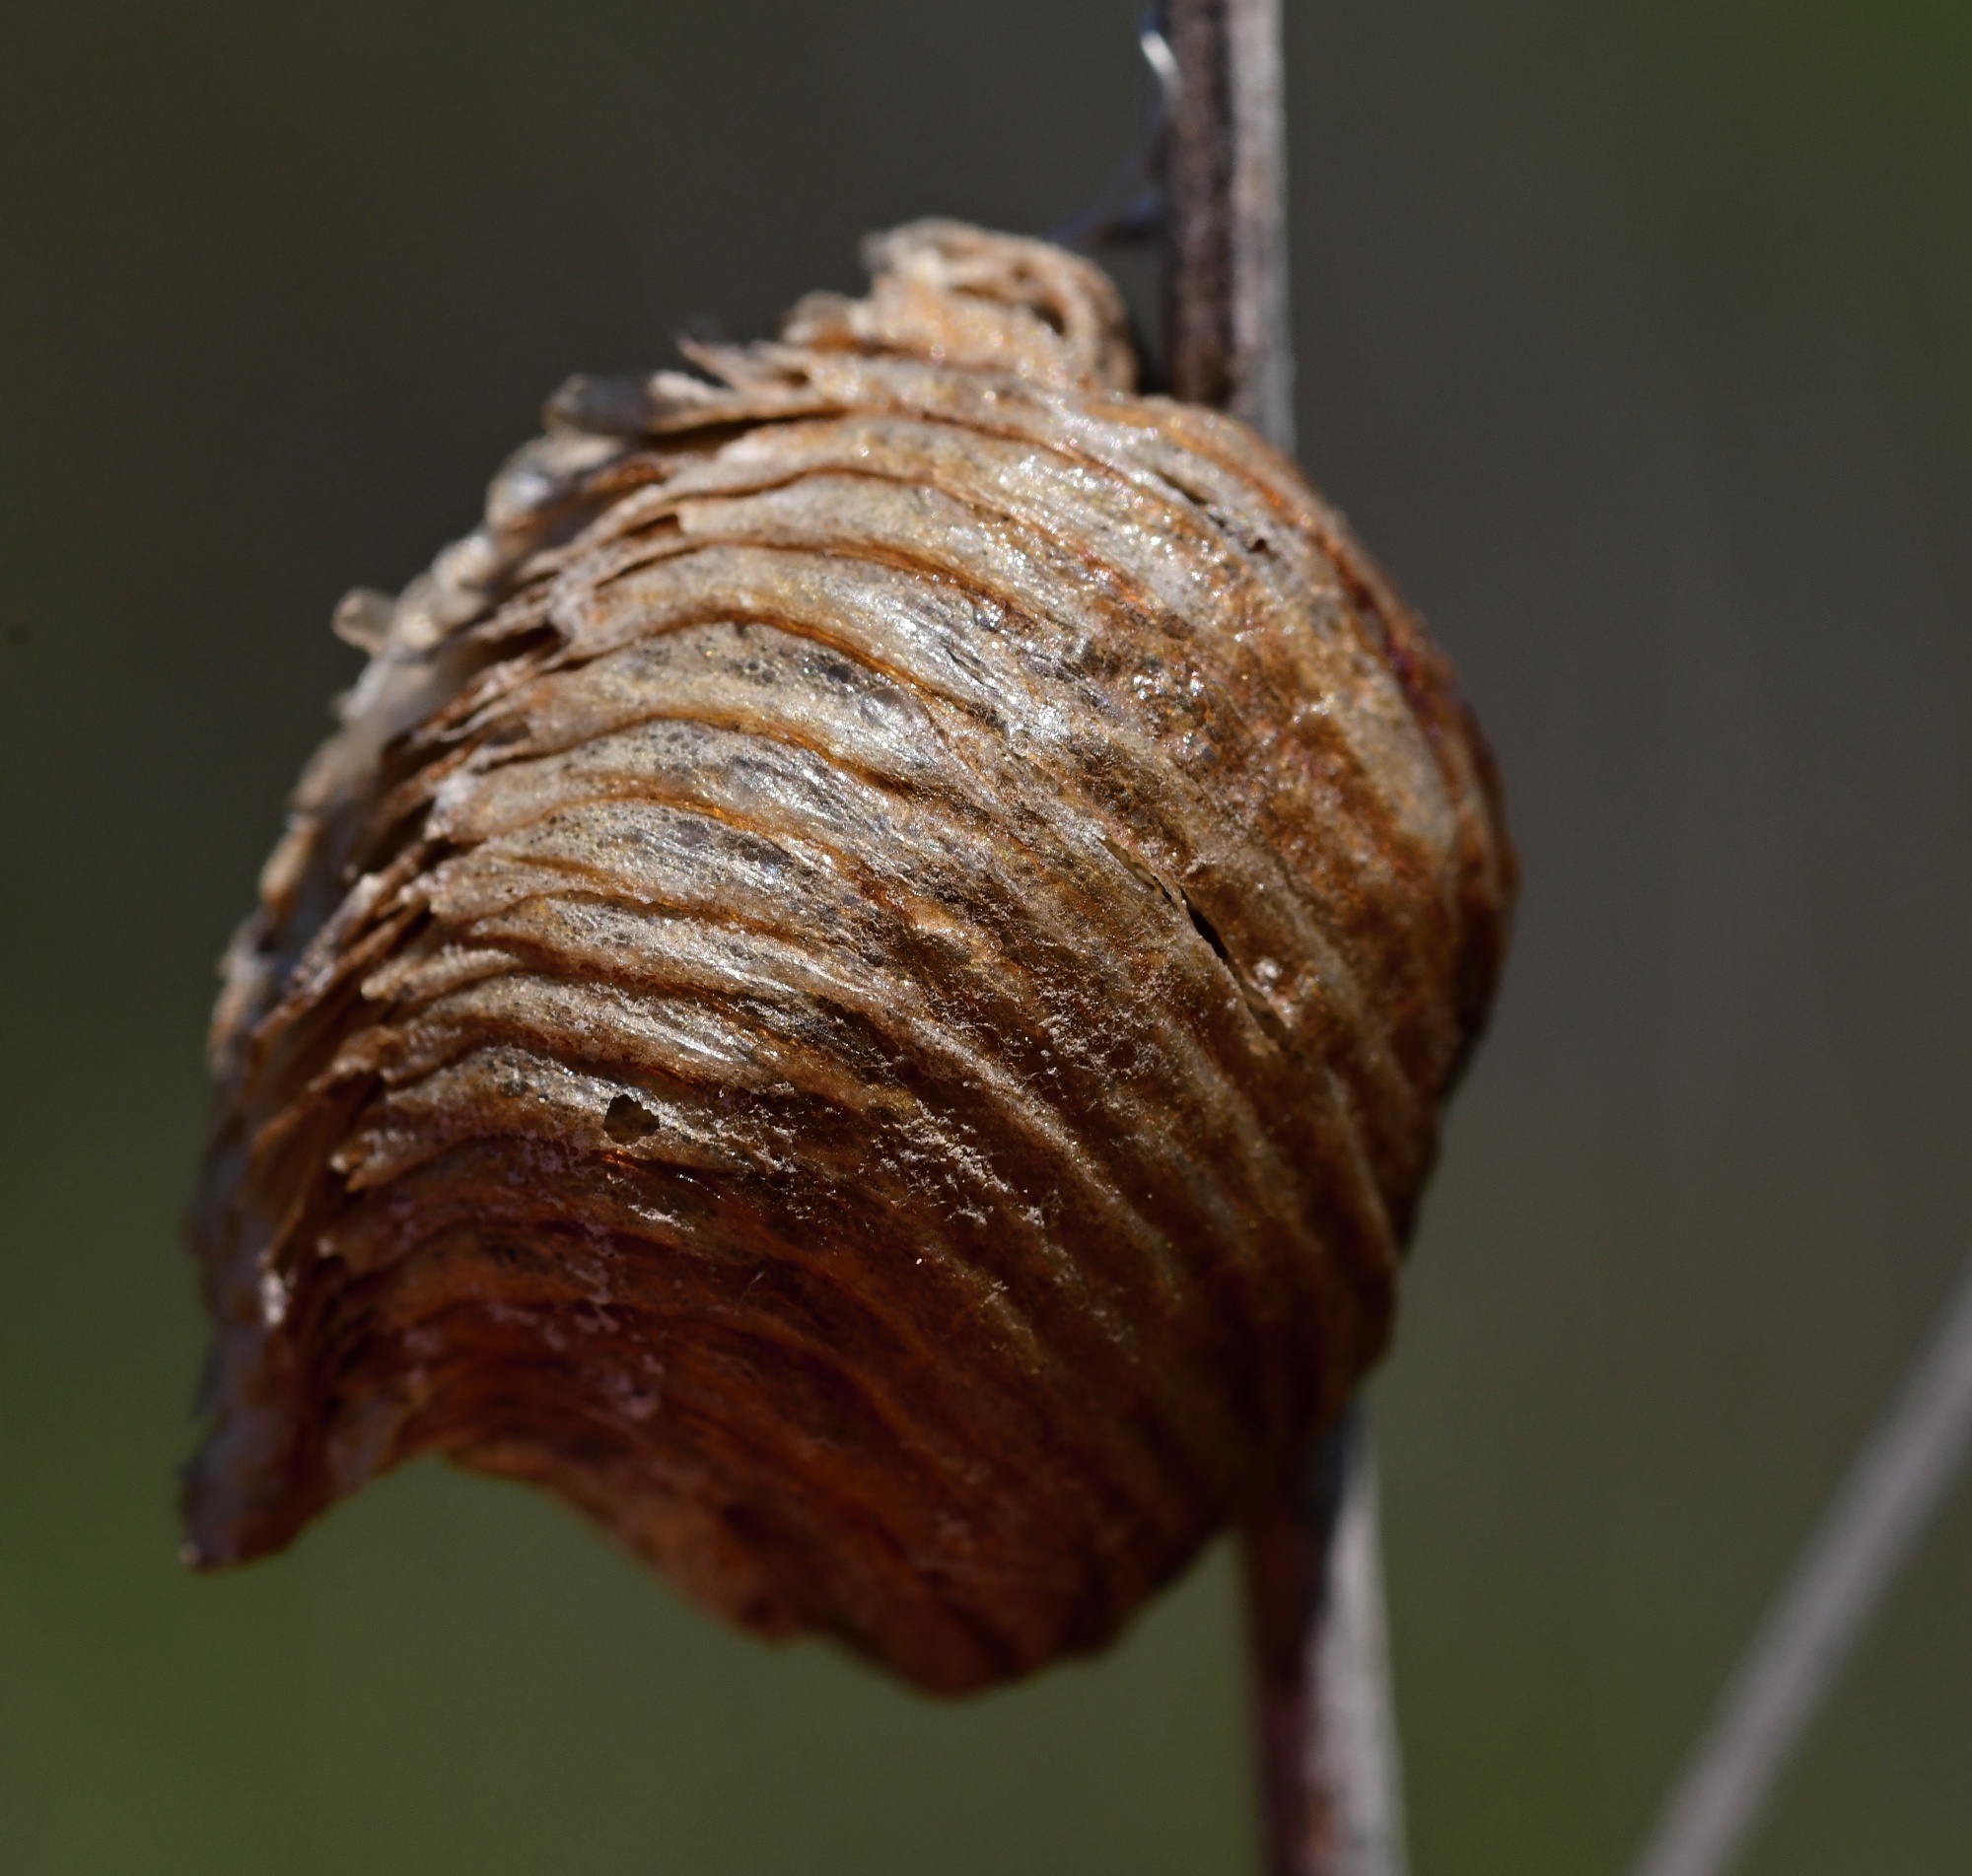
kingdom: Animalia
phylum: Arthropoda
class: Insecta
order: Mantodea
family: Mantidae
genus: Hierodula
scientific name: Hierodula transcaucasica
